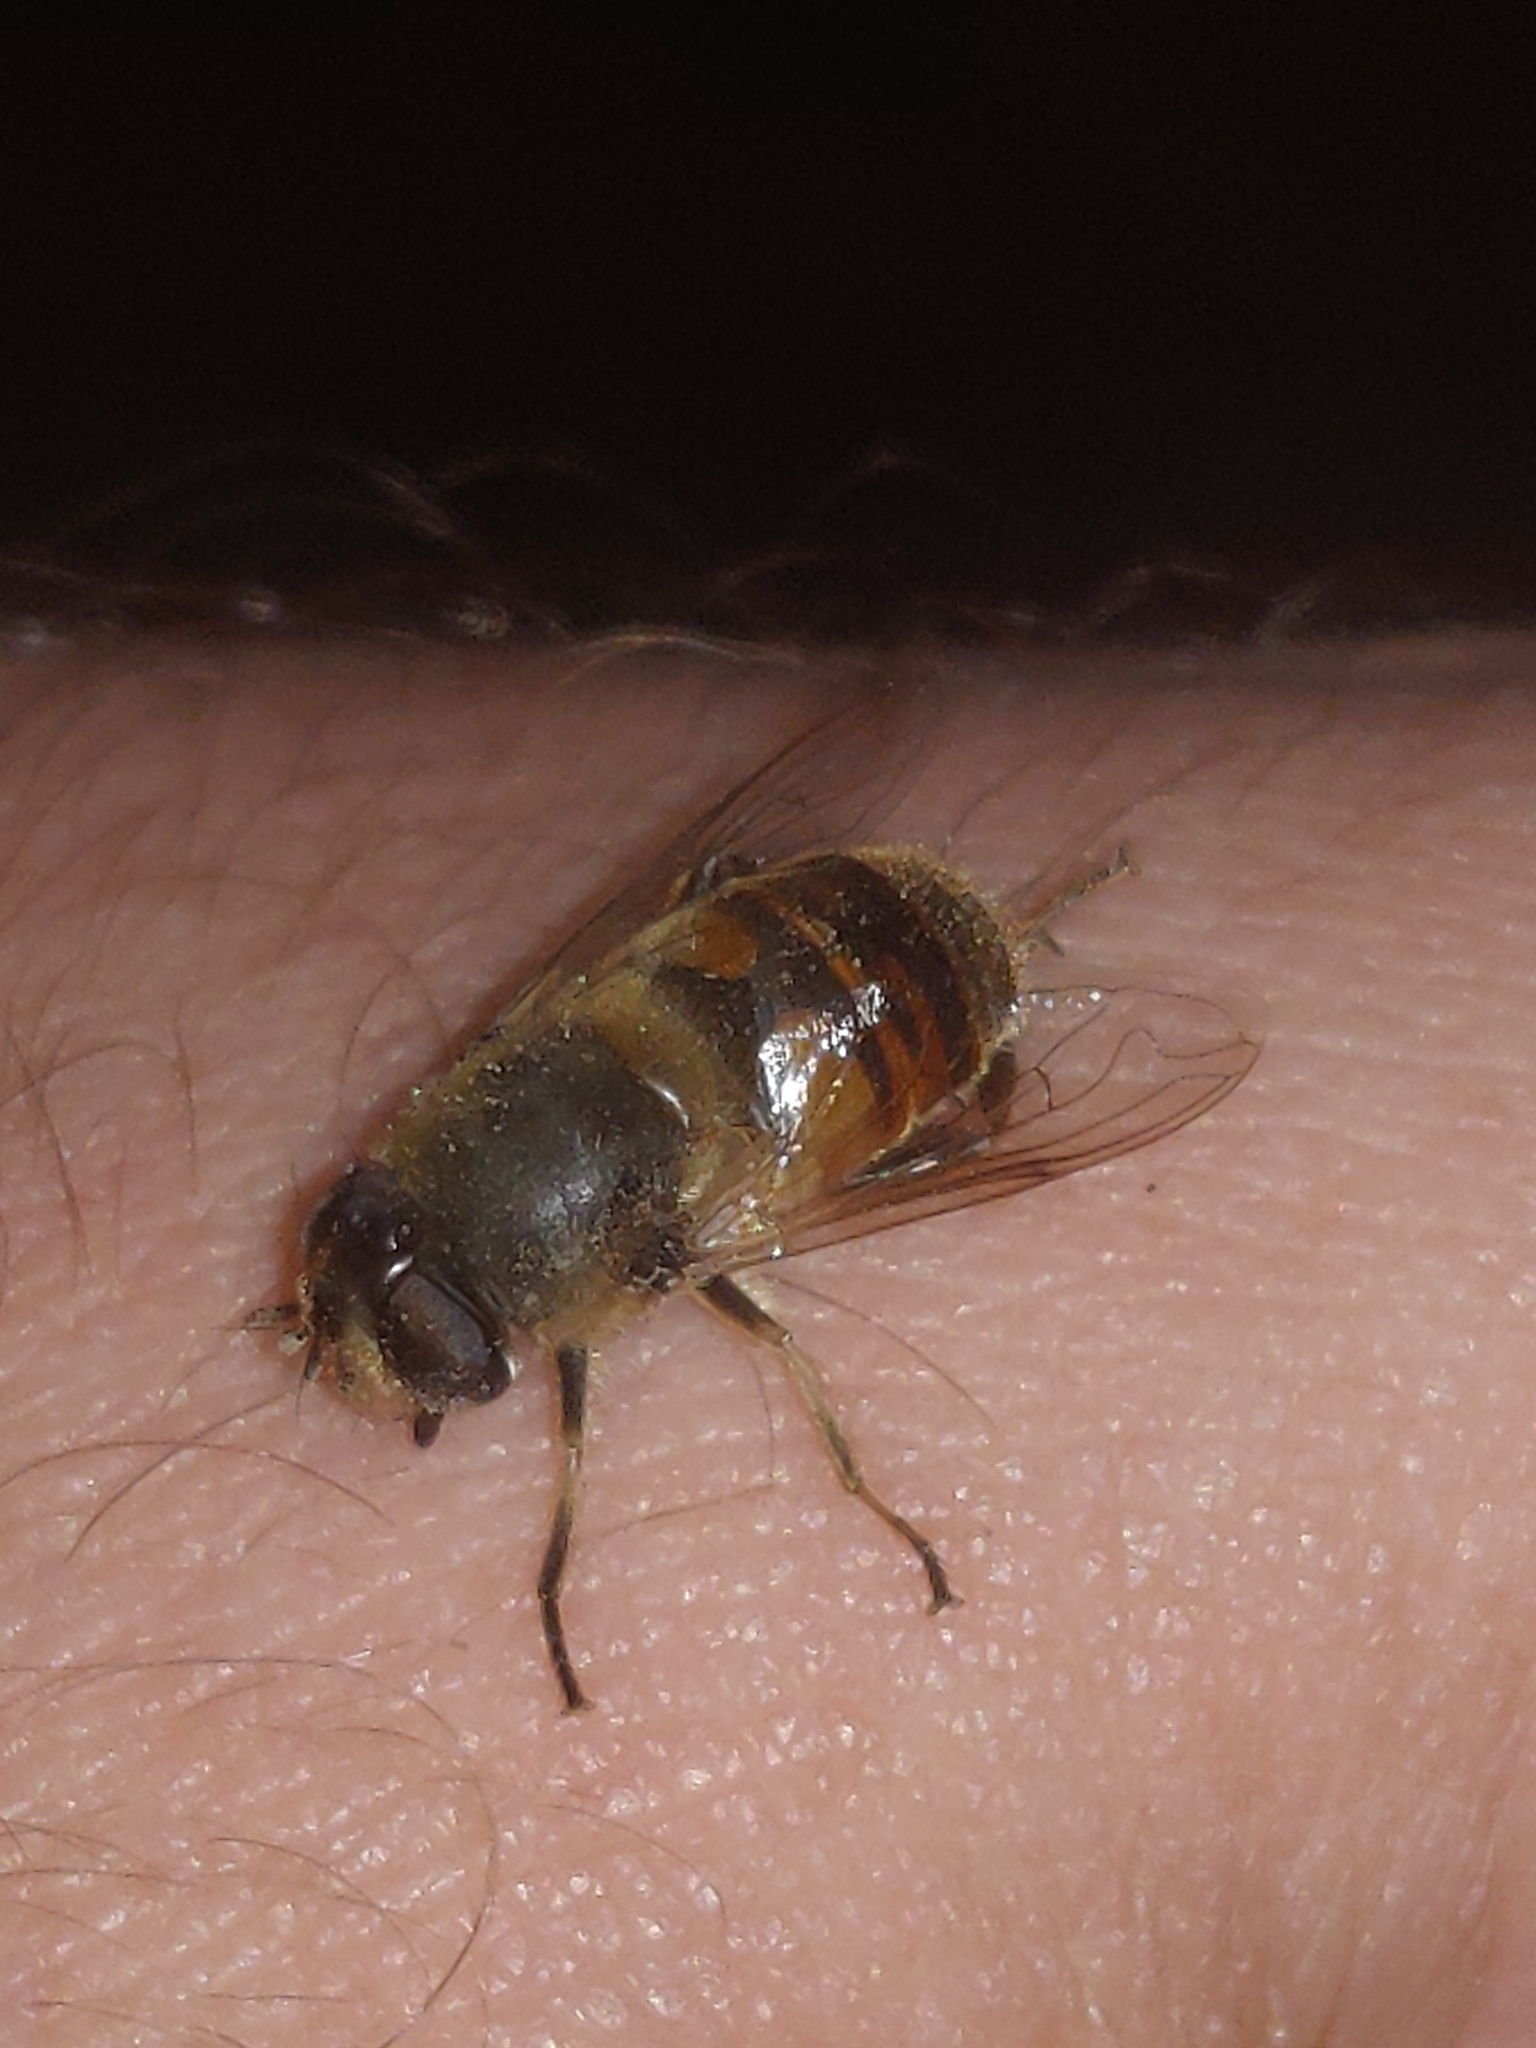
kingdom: Animalia
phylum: Arthropoda
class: Insecta
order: Diptera
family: Syrphidae
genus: Eristalis
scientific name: Eristalis tenax
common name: Drone fly
